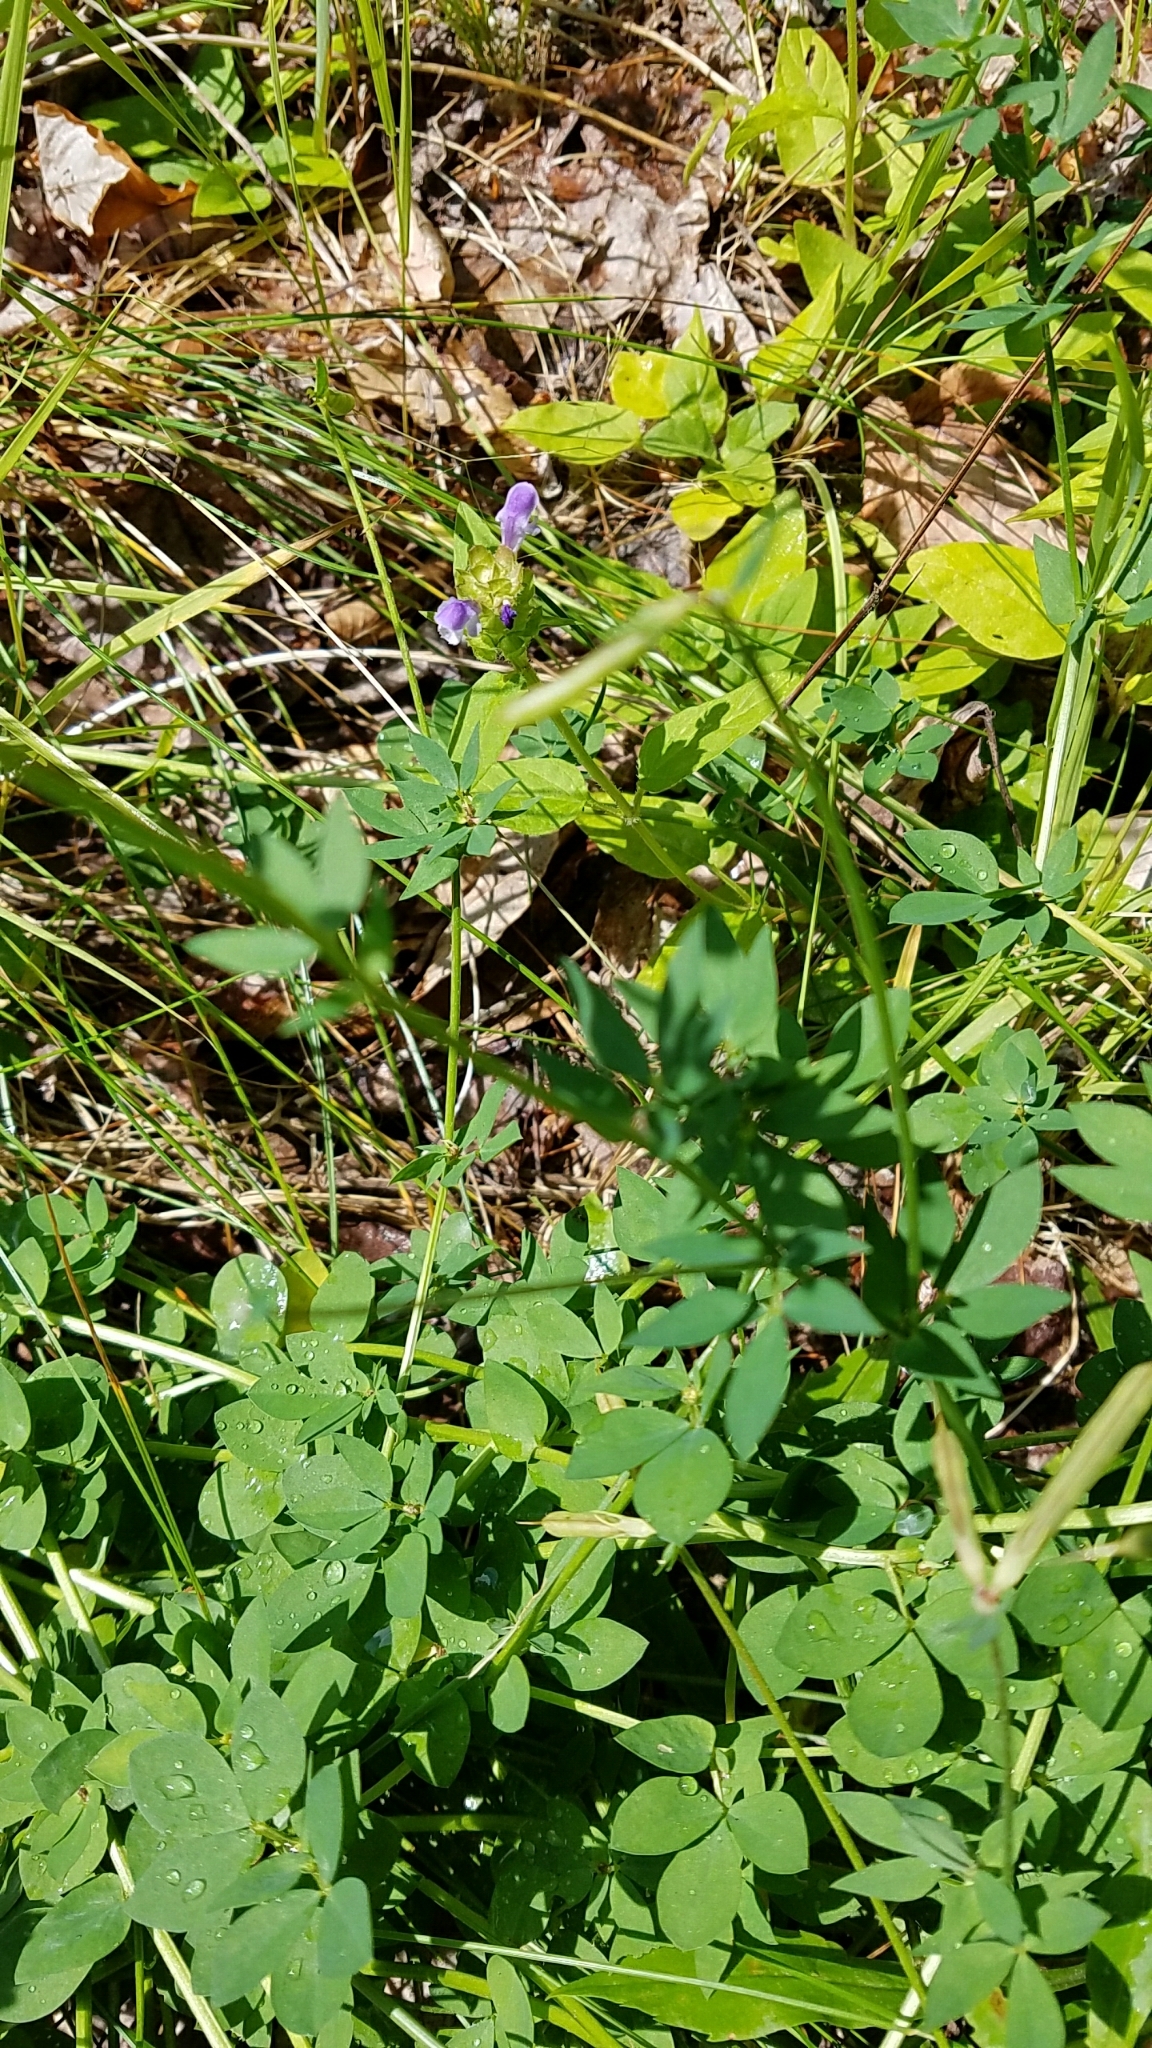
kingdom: Plantae
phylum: Tracheophyta
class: Magnoliopsida
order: Fabales
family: Fabaceae
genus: Lotus
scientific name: Lotus corniculatus
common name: Common bird's-foot-trefoil
